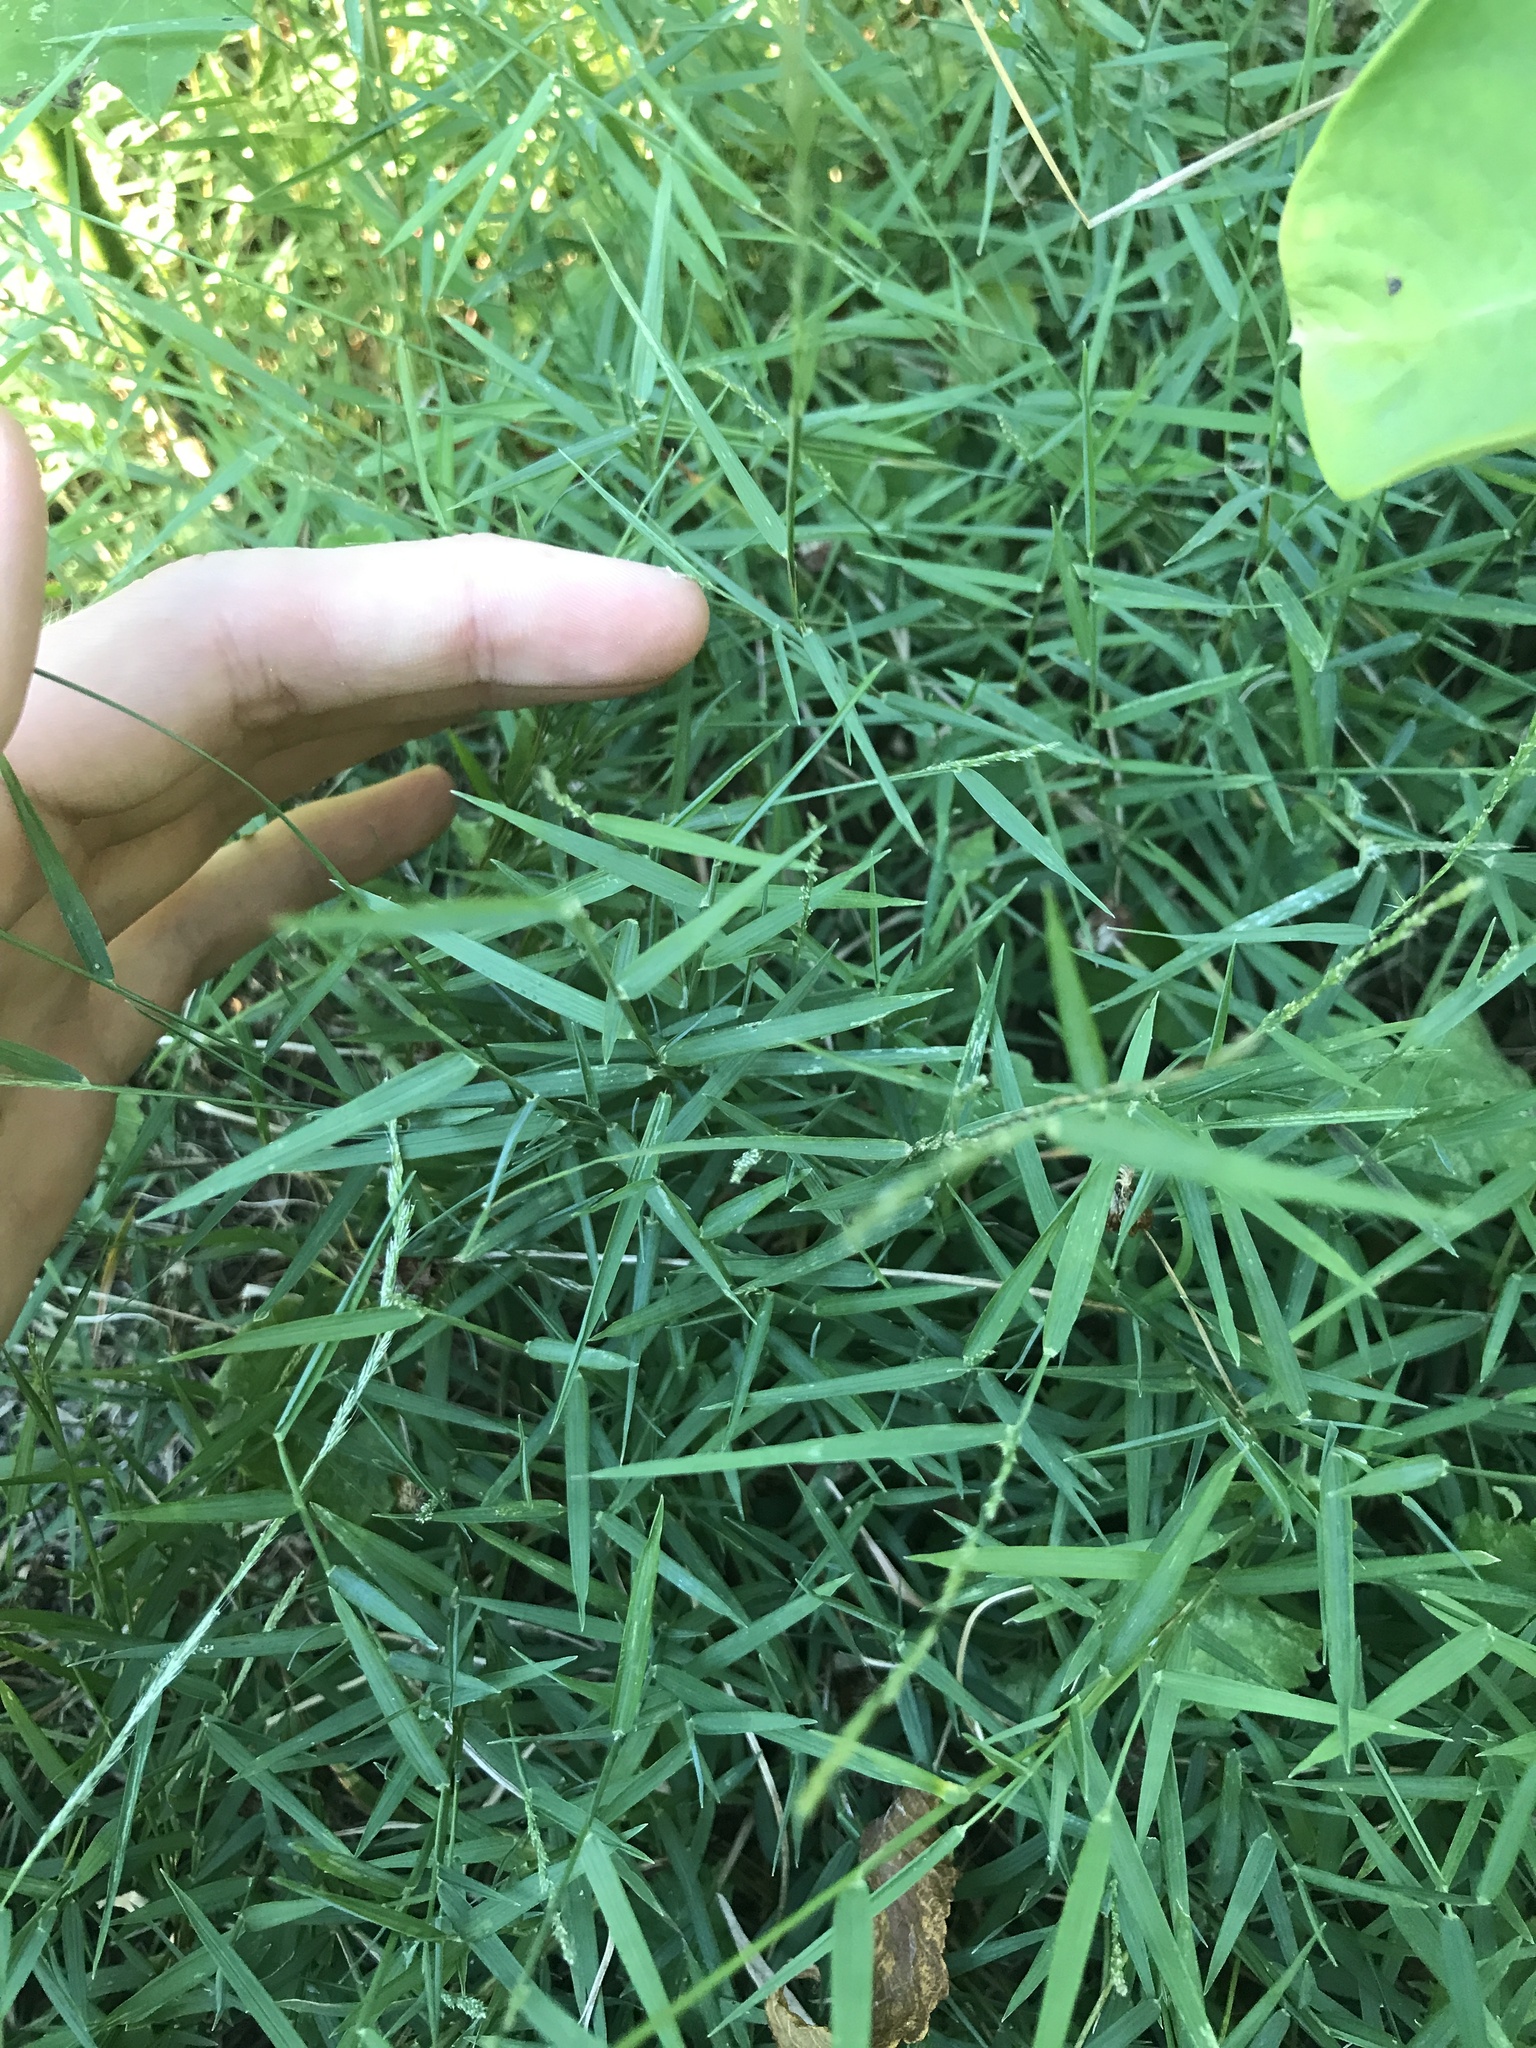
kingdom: Plantae
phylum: Tracheophyta
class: Liliopsida
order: Poales
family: Poaceae
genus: Muhlenbergia
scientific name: Muhlenbergia schreberi
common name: Nimblewill
